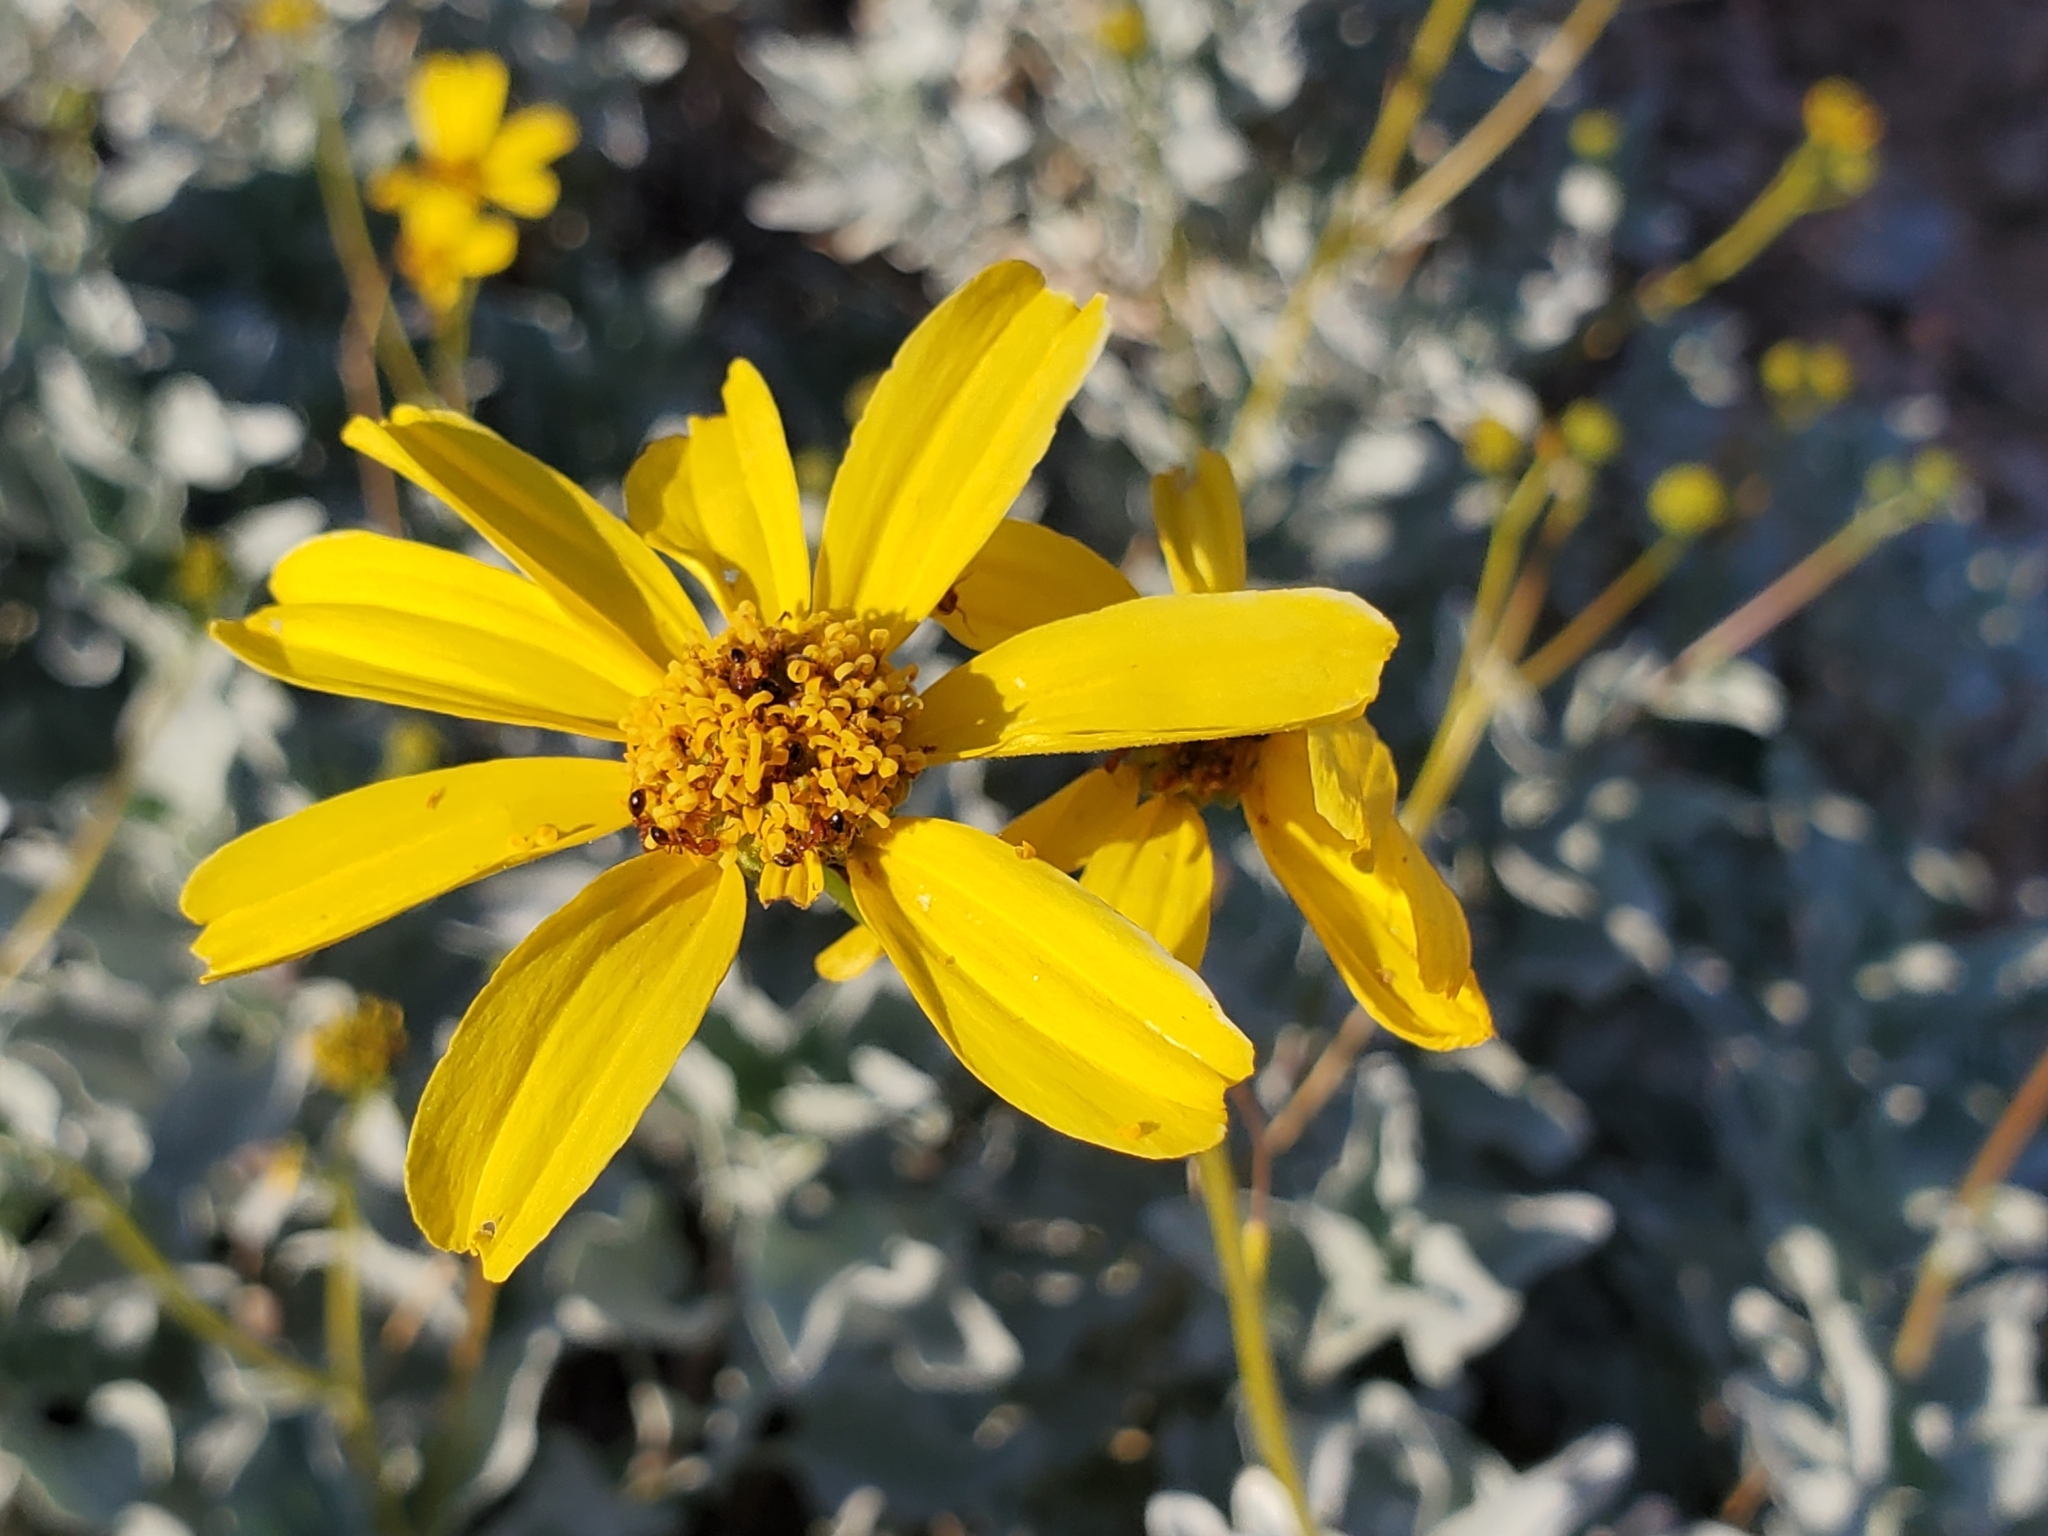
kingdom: Plantae
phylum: Tracheophyta
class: Magnoliopsida
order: Asterales
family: Asteraceae
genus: Encelia
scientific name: Encelia farinosa
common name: Brittlebush
